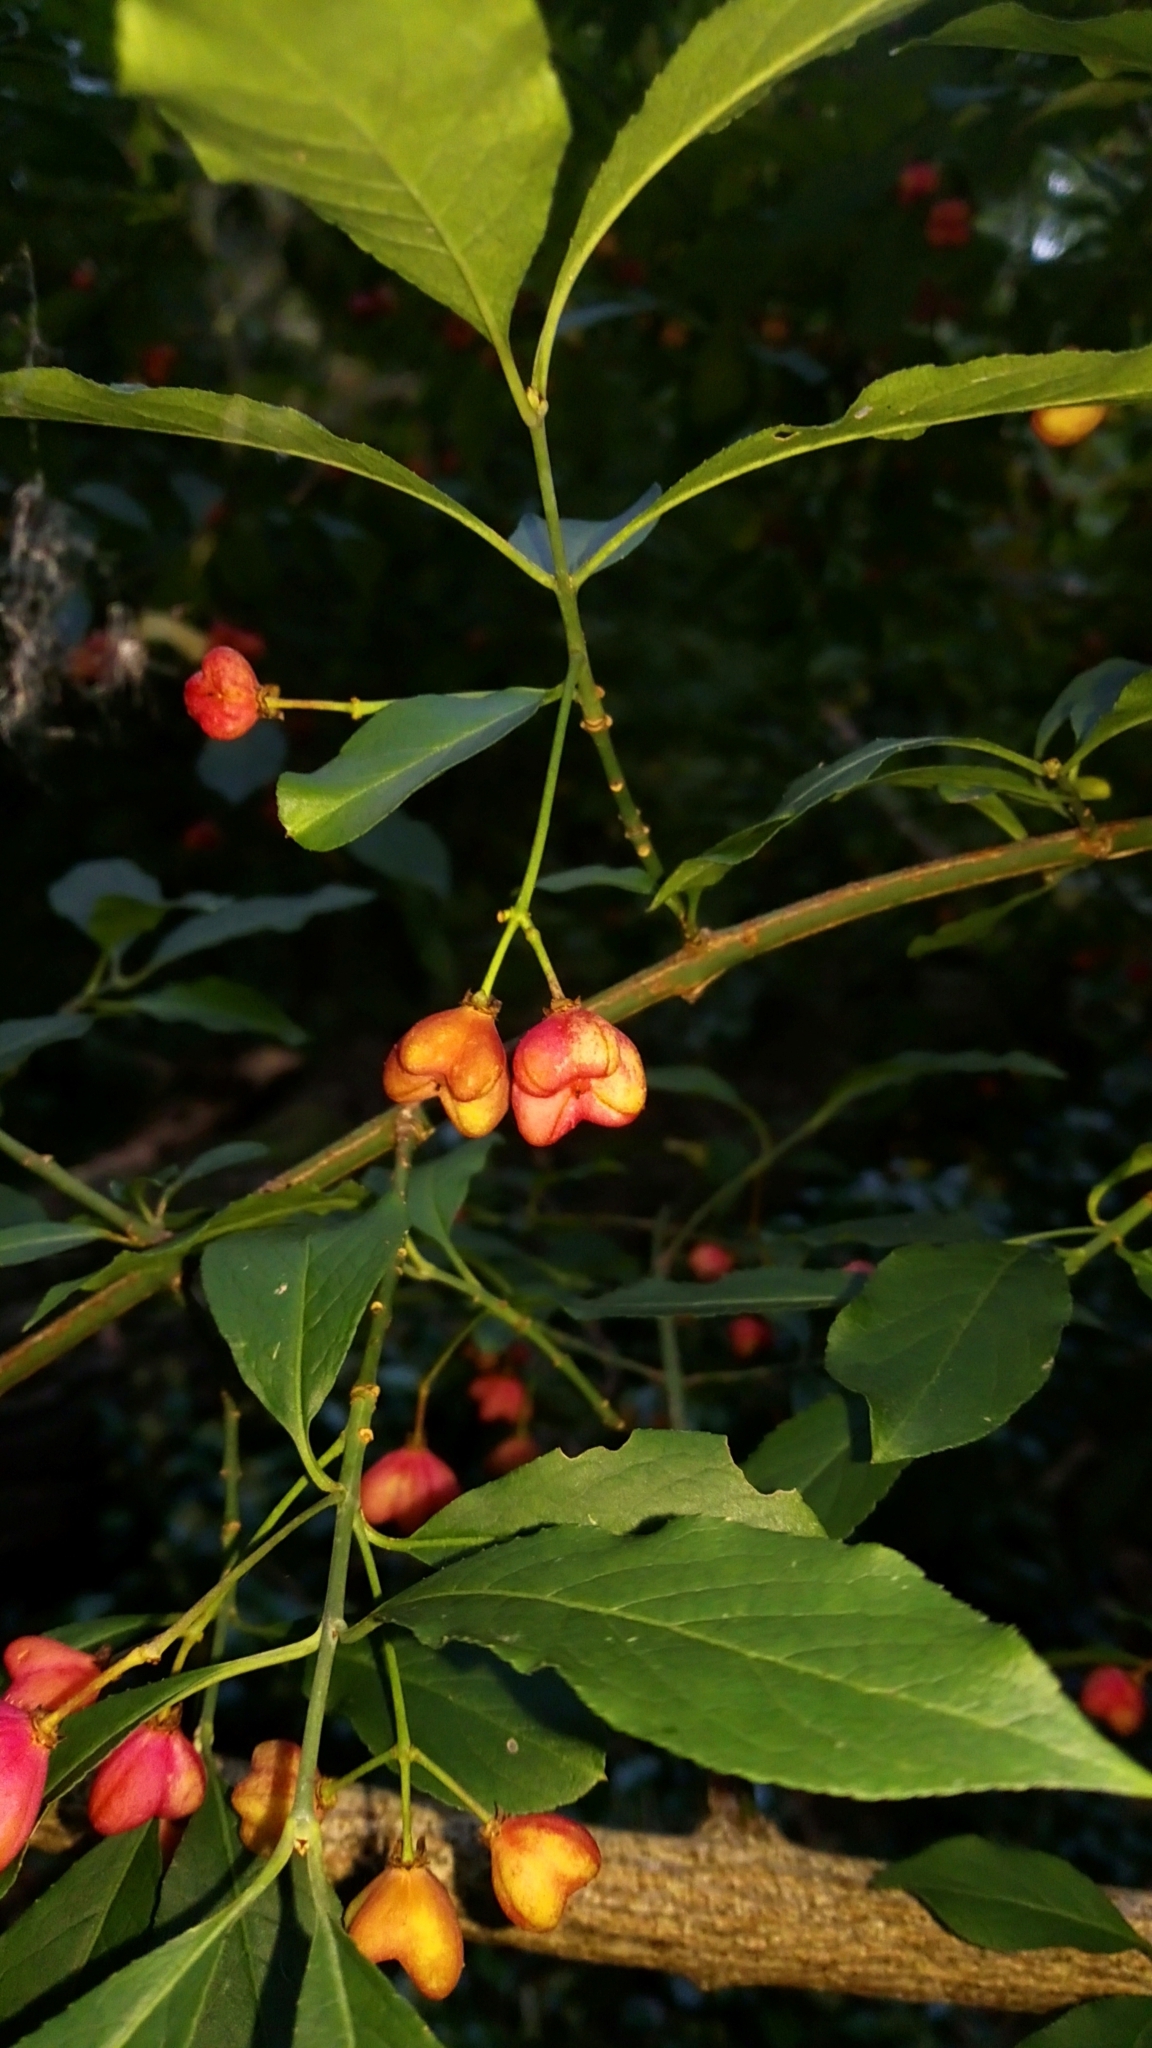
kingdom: Plantae
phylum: Tracheophyta
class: Magnoliopsida
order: Celastrales
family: Celastraceae
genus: Euonymus
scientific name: Euonymus europaeus
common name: Spindle
